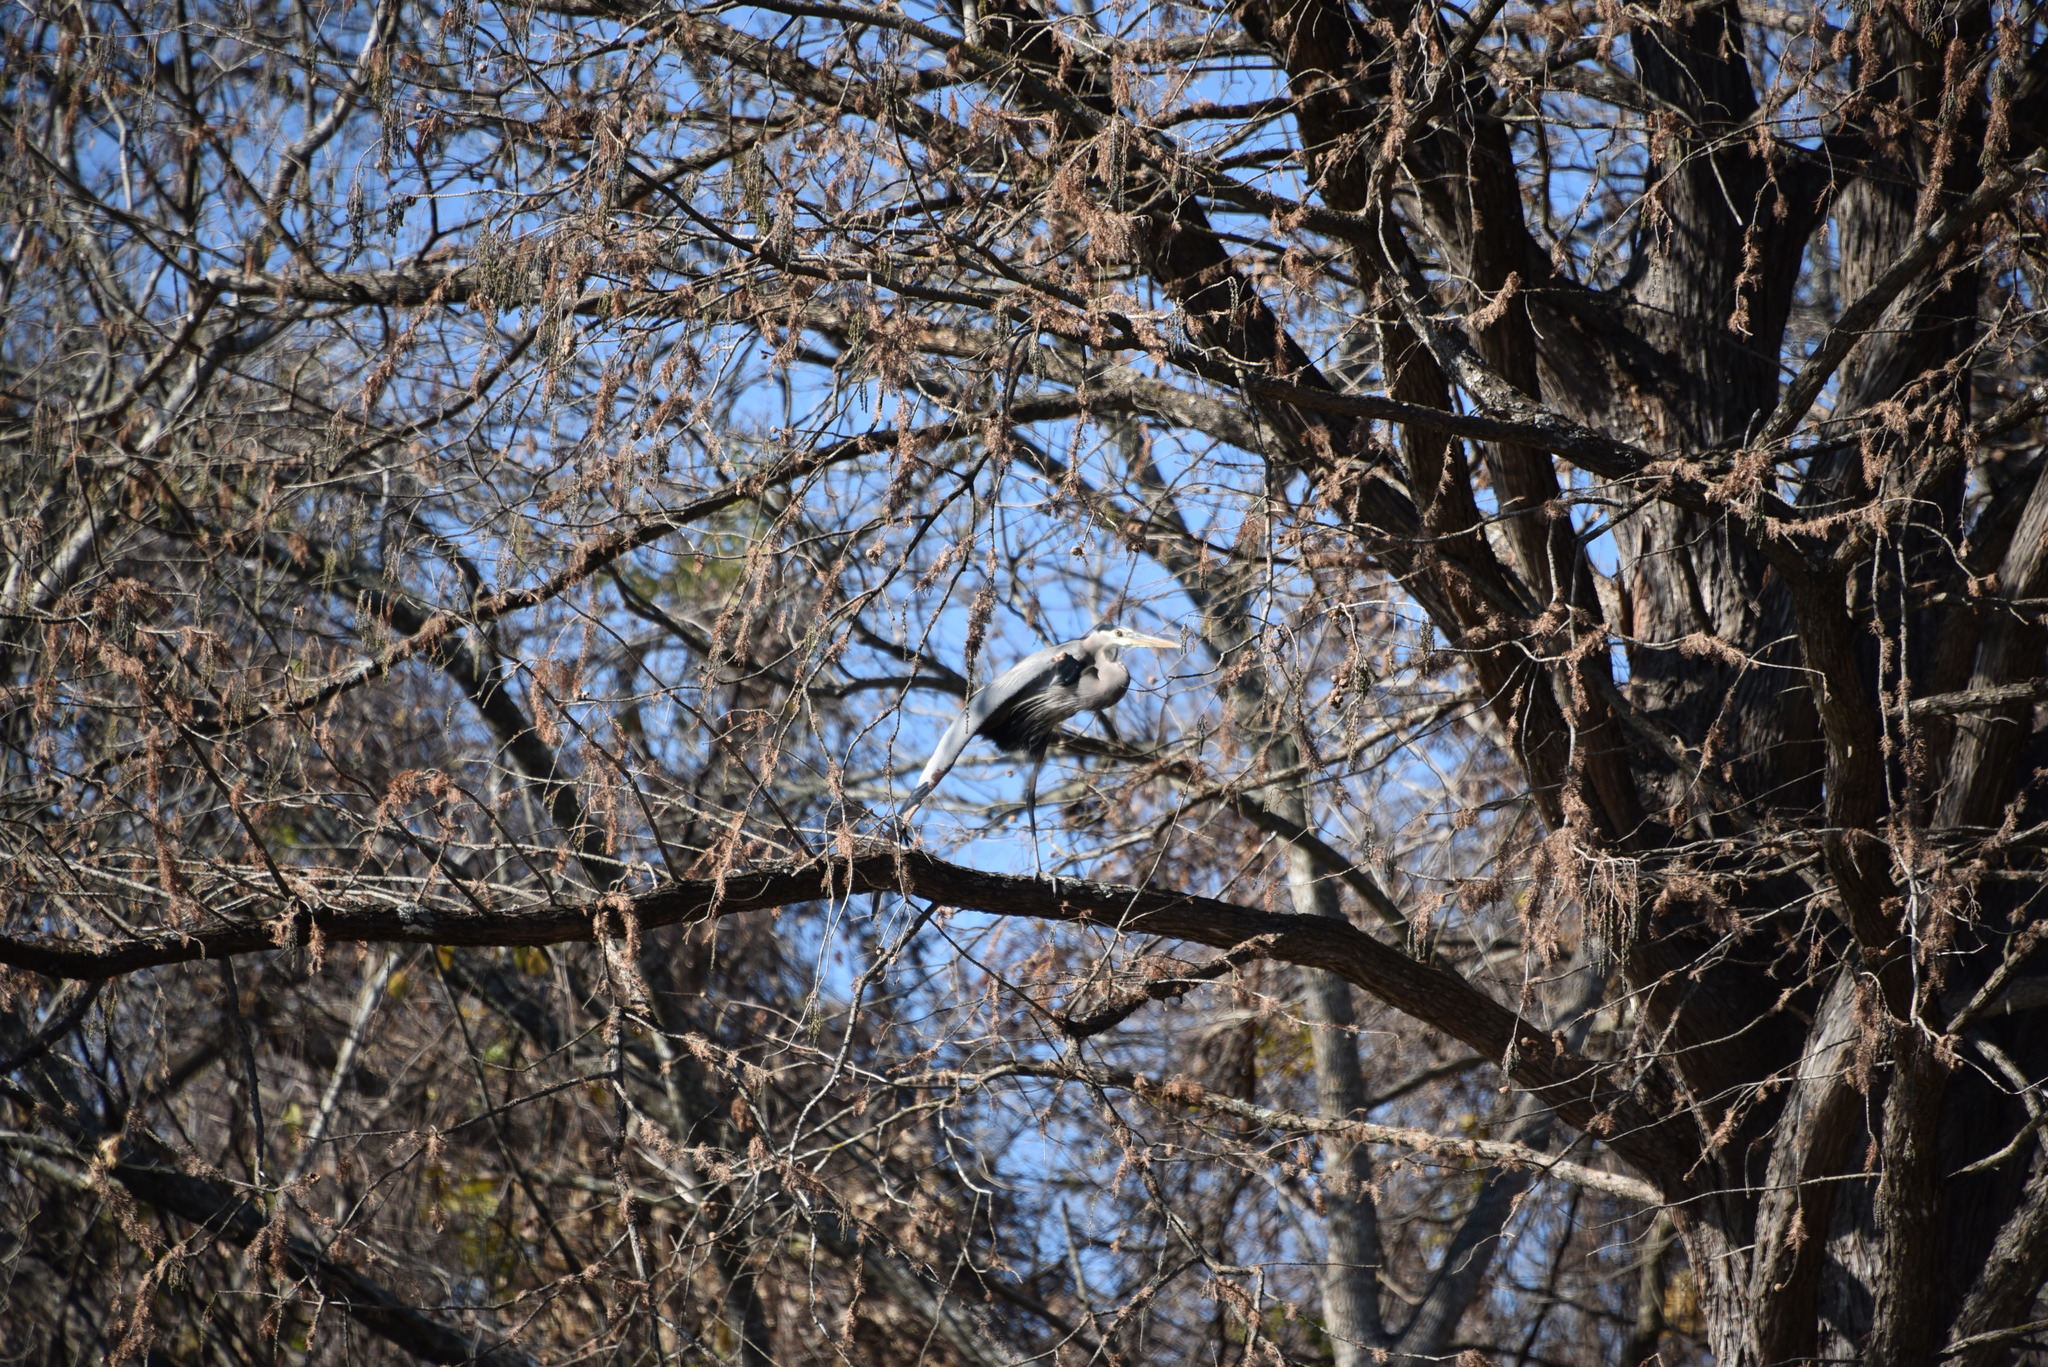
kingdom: Animalia
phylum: Chordata
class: Aves
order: Pelecaniformes
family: Ardeidae
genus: Ardea
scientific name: Ardea herodias
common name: Great blue heron
